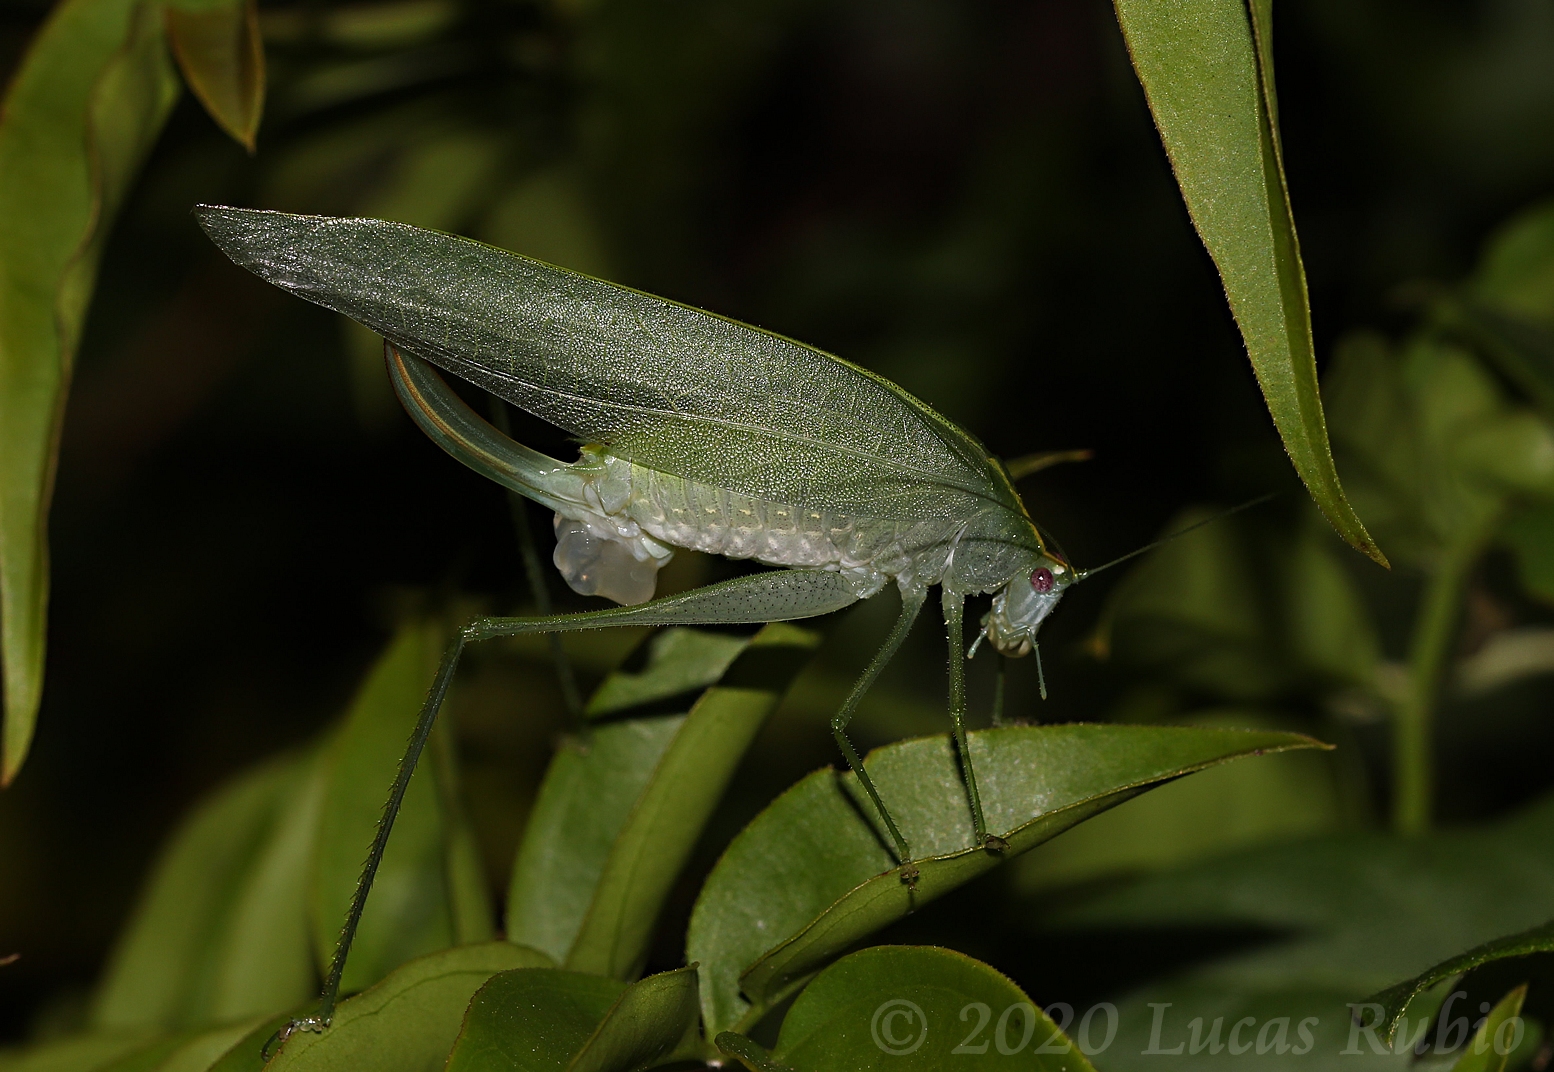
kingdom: Animalia
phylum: Arthropoda
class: Insecta
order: Orthoptera
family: Tettigoniidae
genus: Grammadera
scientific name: Grammadera clara
